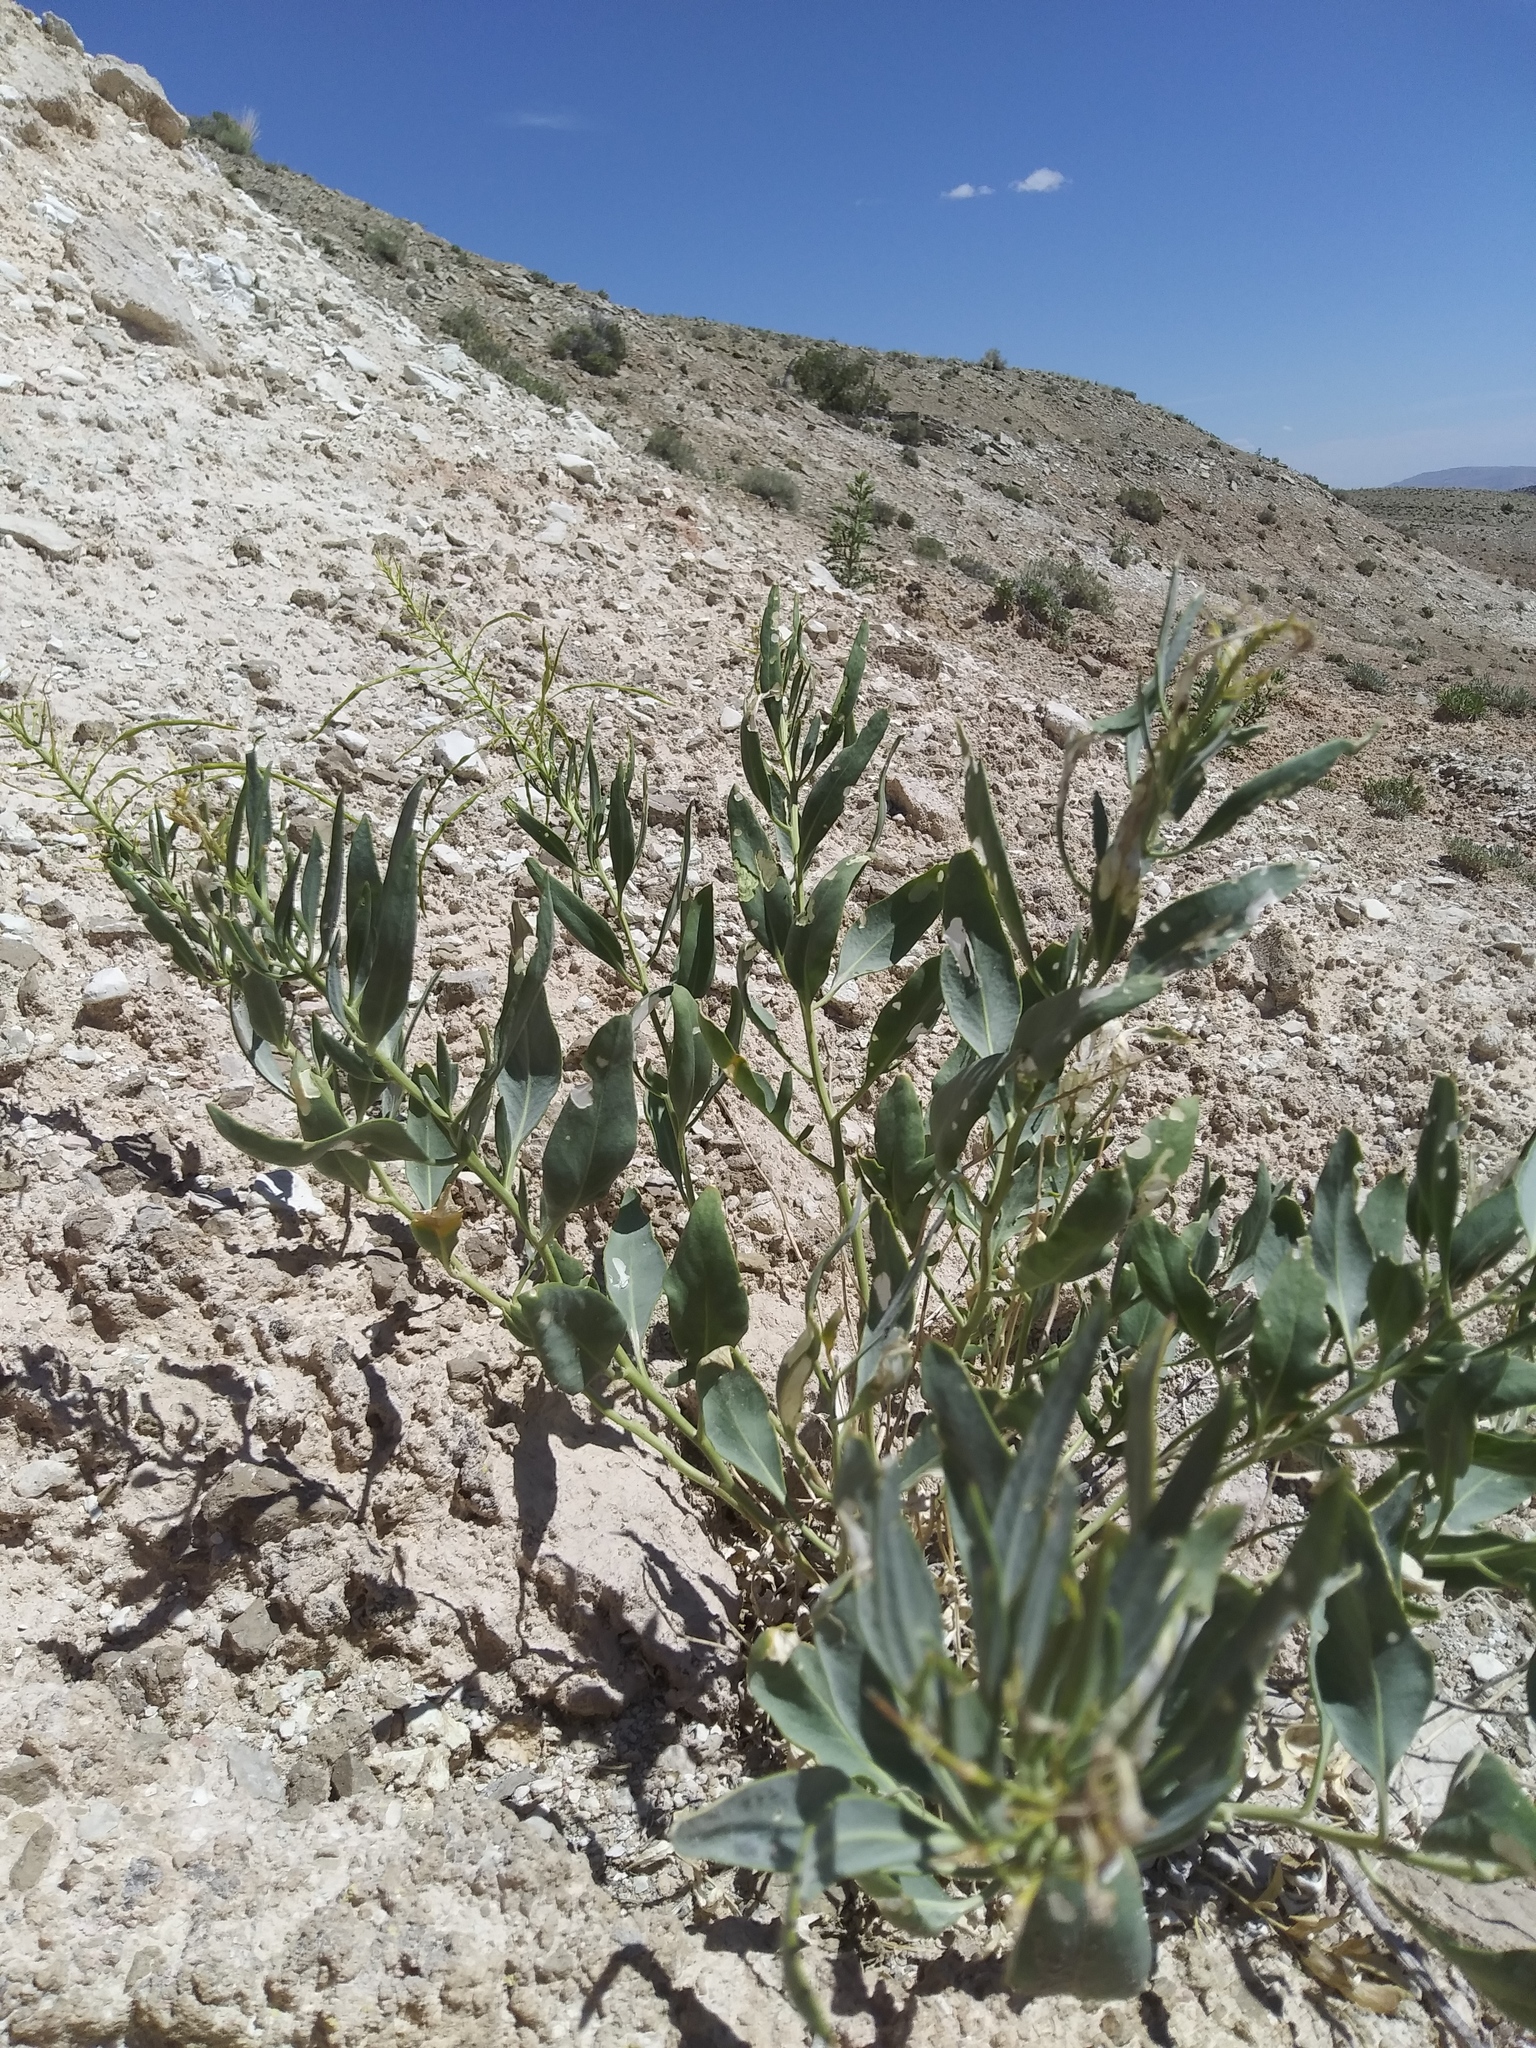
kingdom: Plantae
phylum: Tracheophyta
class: Magnoliopsida
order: Brassicales
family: Brassicaceae
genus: Stanleya
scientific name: Stanleya pinnata
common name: Prince's-plume
